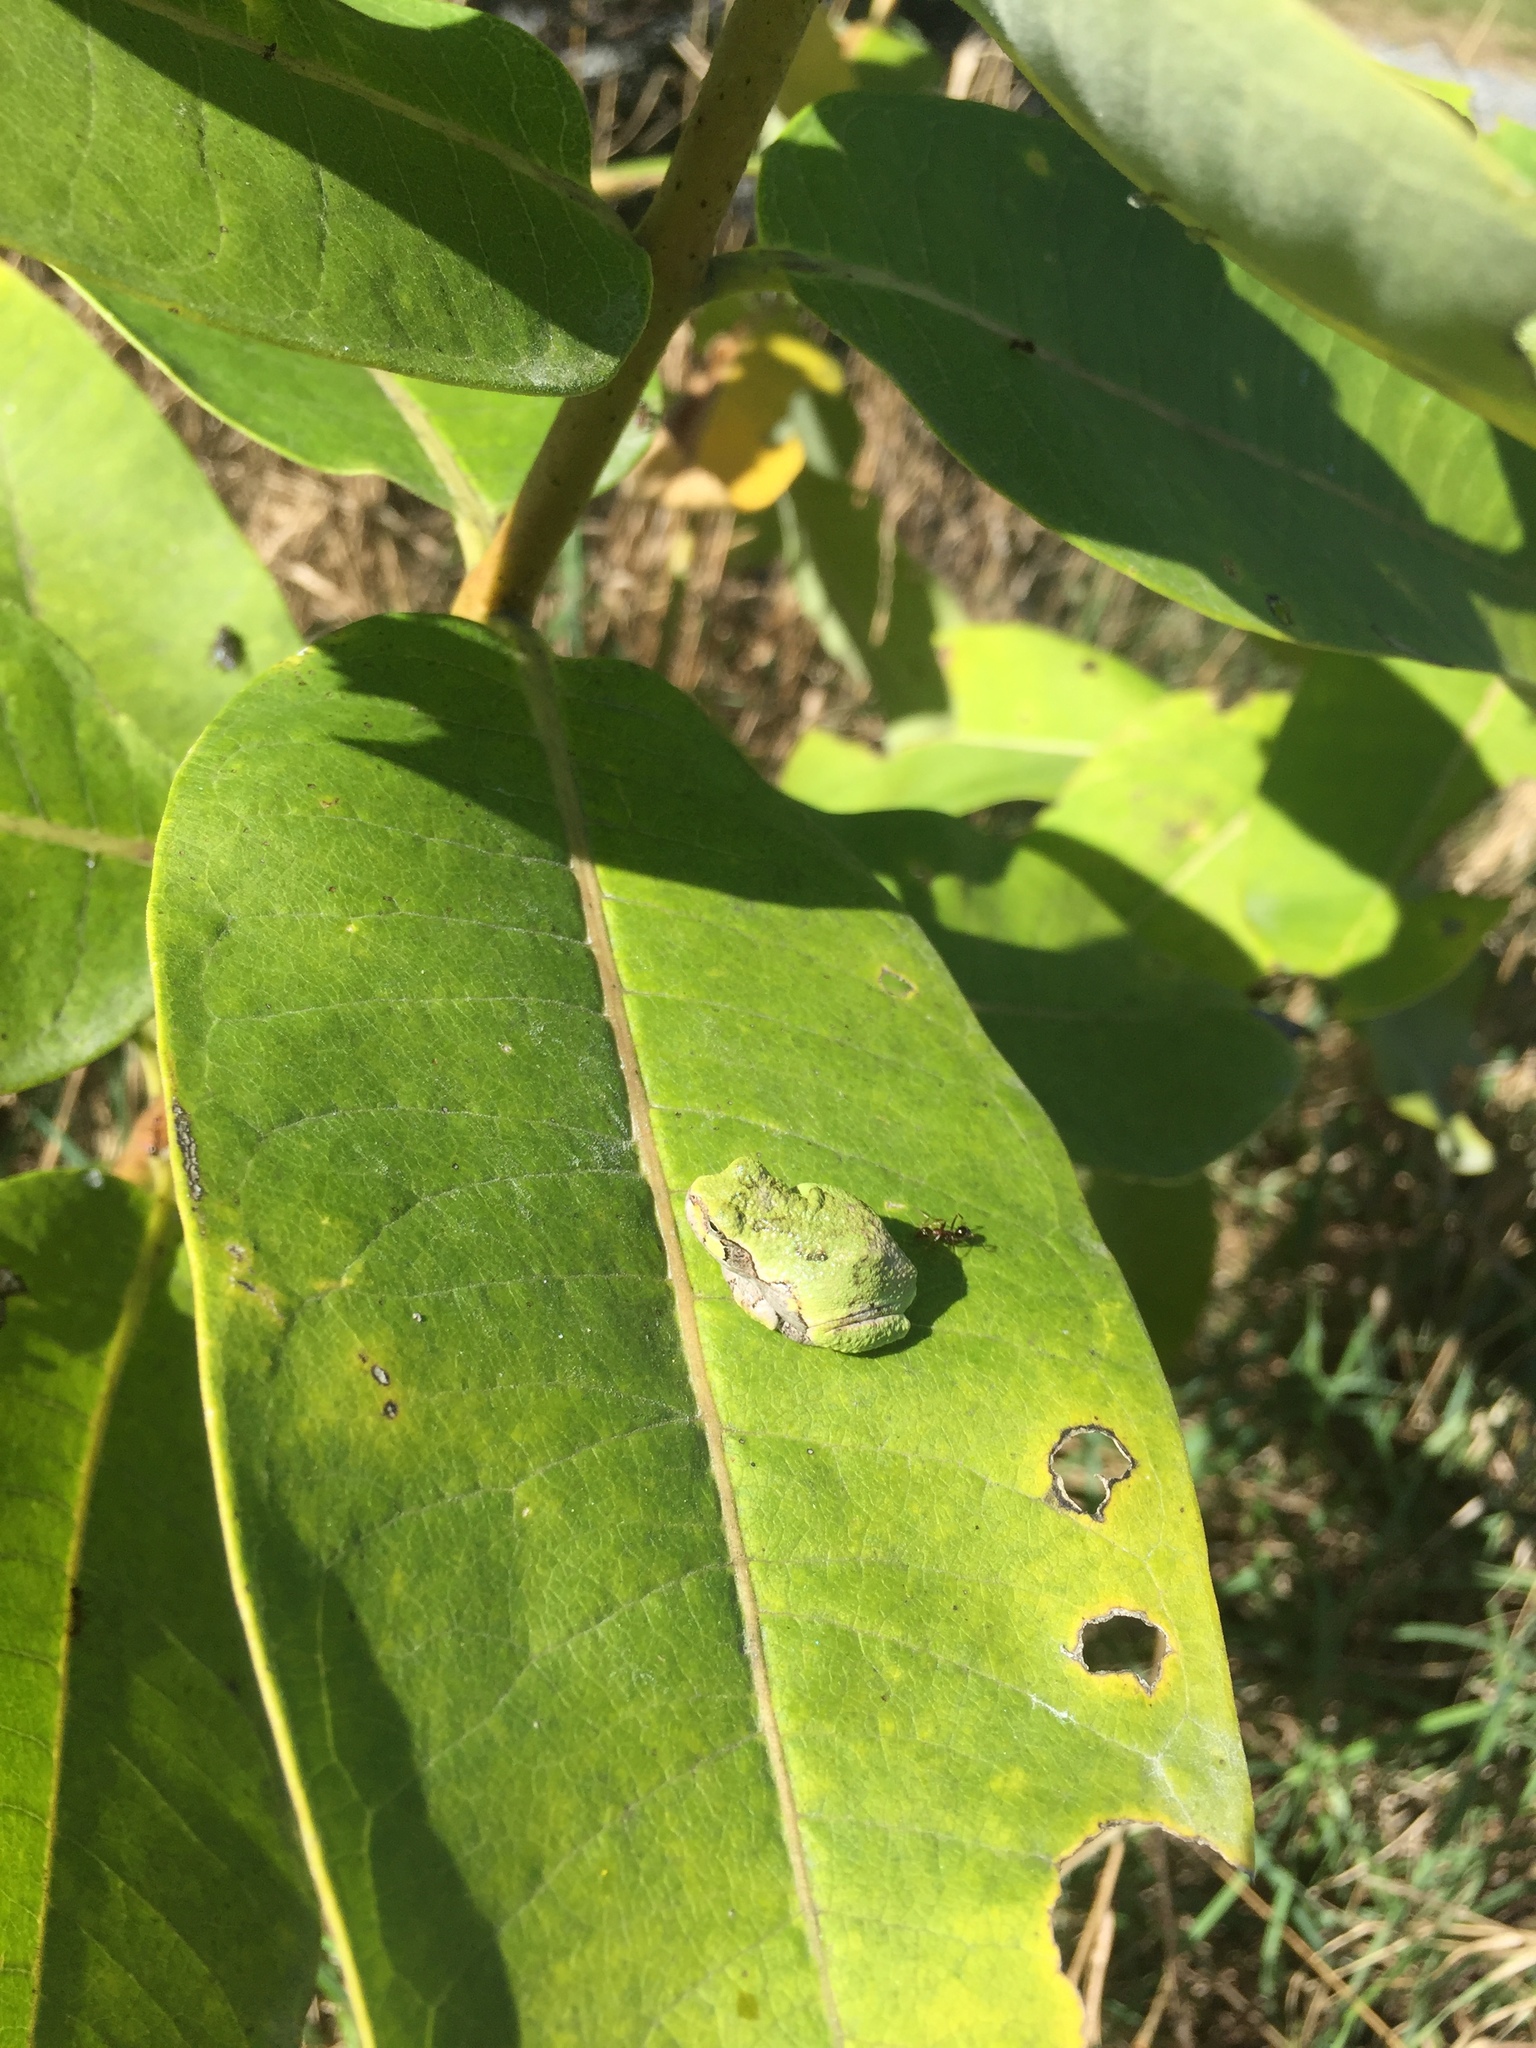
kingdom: Animalia
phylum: Chordata
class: Amphibia
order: Anura
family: Hylidae
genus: Dryophytes
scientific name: Dryophytes versicolor
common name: Gray treefrog
